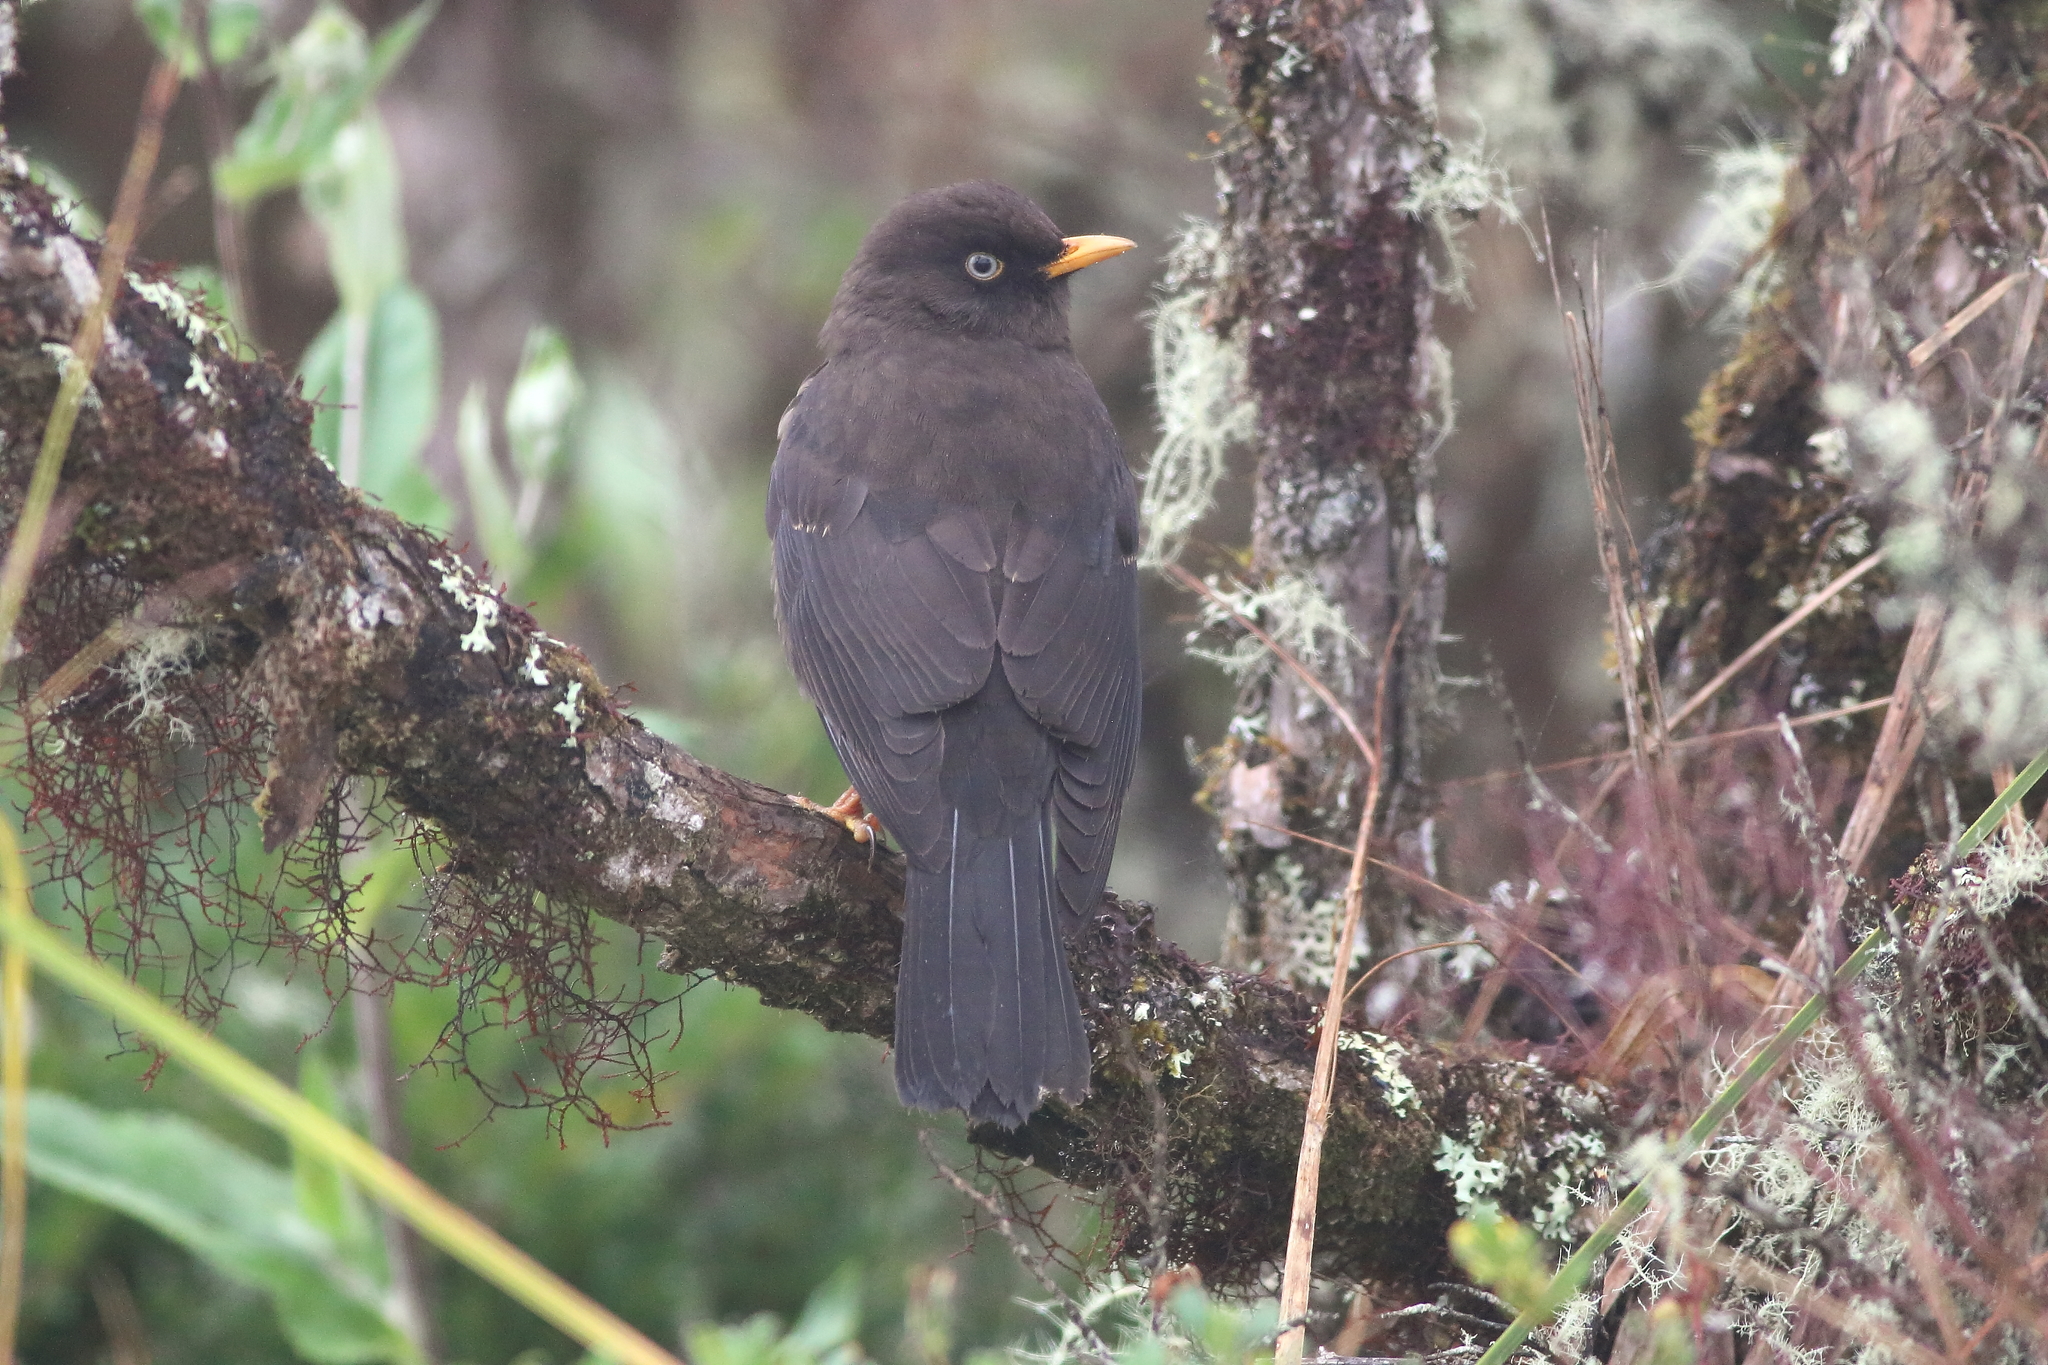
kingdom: Animalia
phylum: Chordata
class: Aves
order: Passeriformes
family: Turdidae
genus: Turdus
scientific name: Turdus nigrescens
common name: Sooty thrush
